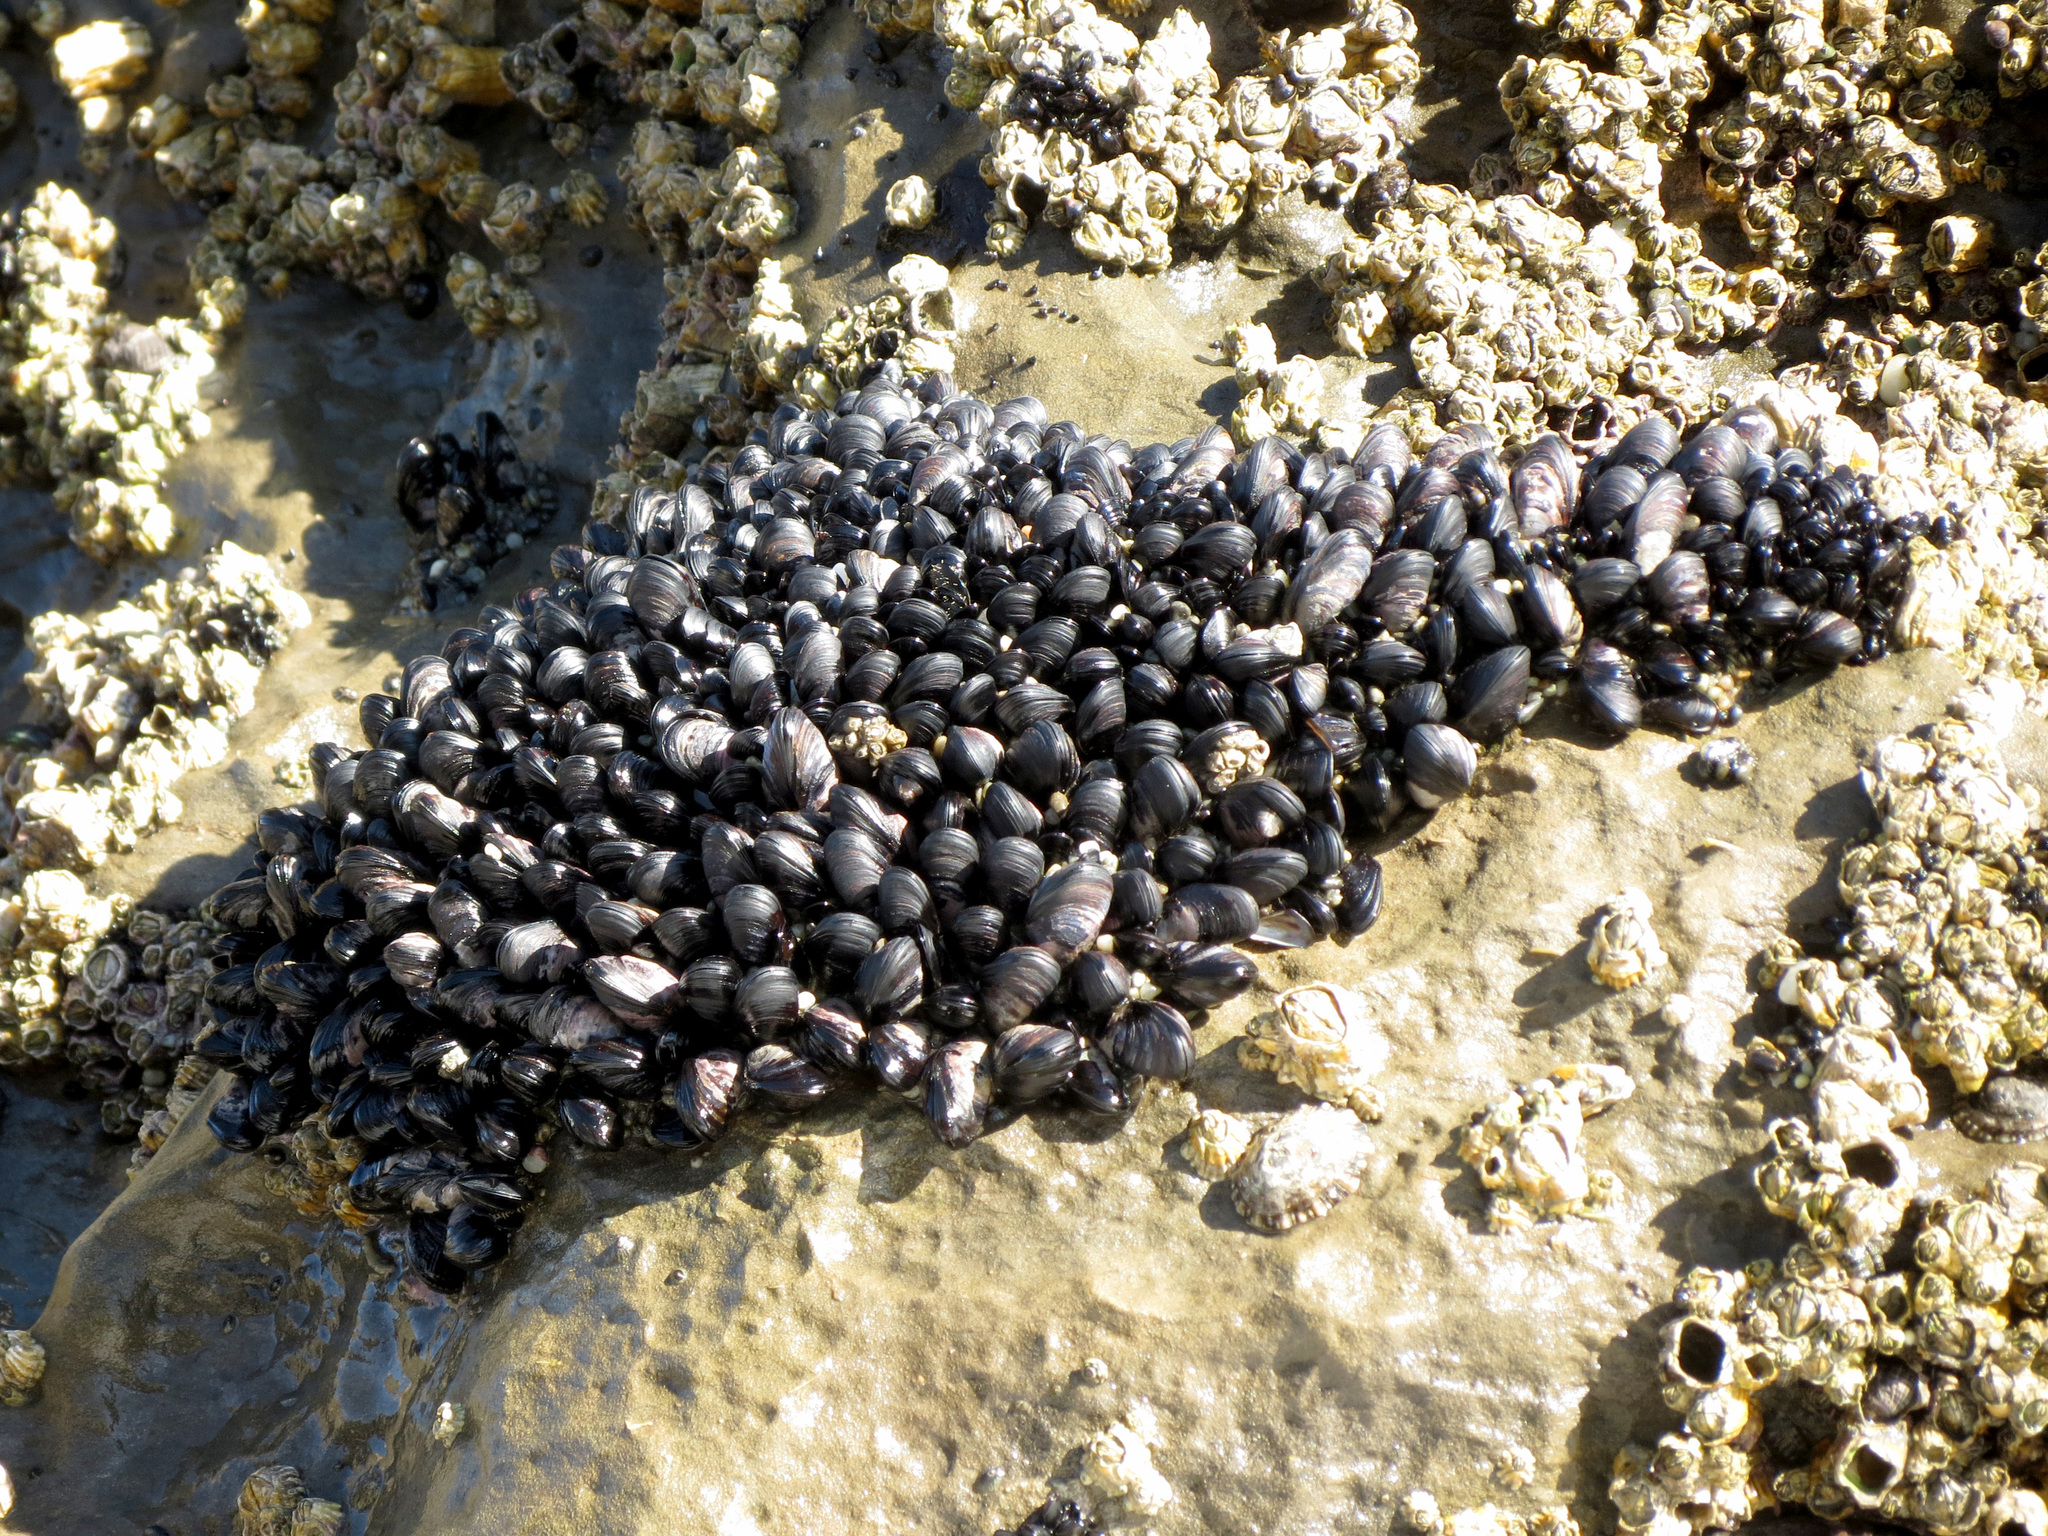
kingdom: Animalia
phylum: Mollusca
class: Bivalvia
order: Mytilida
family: Mytilidae
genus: Xenostrobus
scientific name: Xenostrobus neozelanicus
